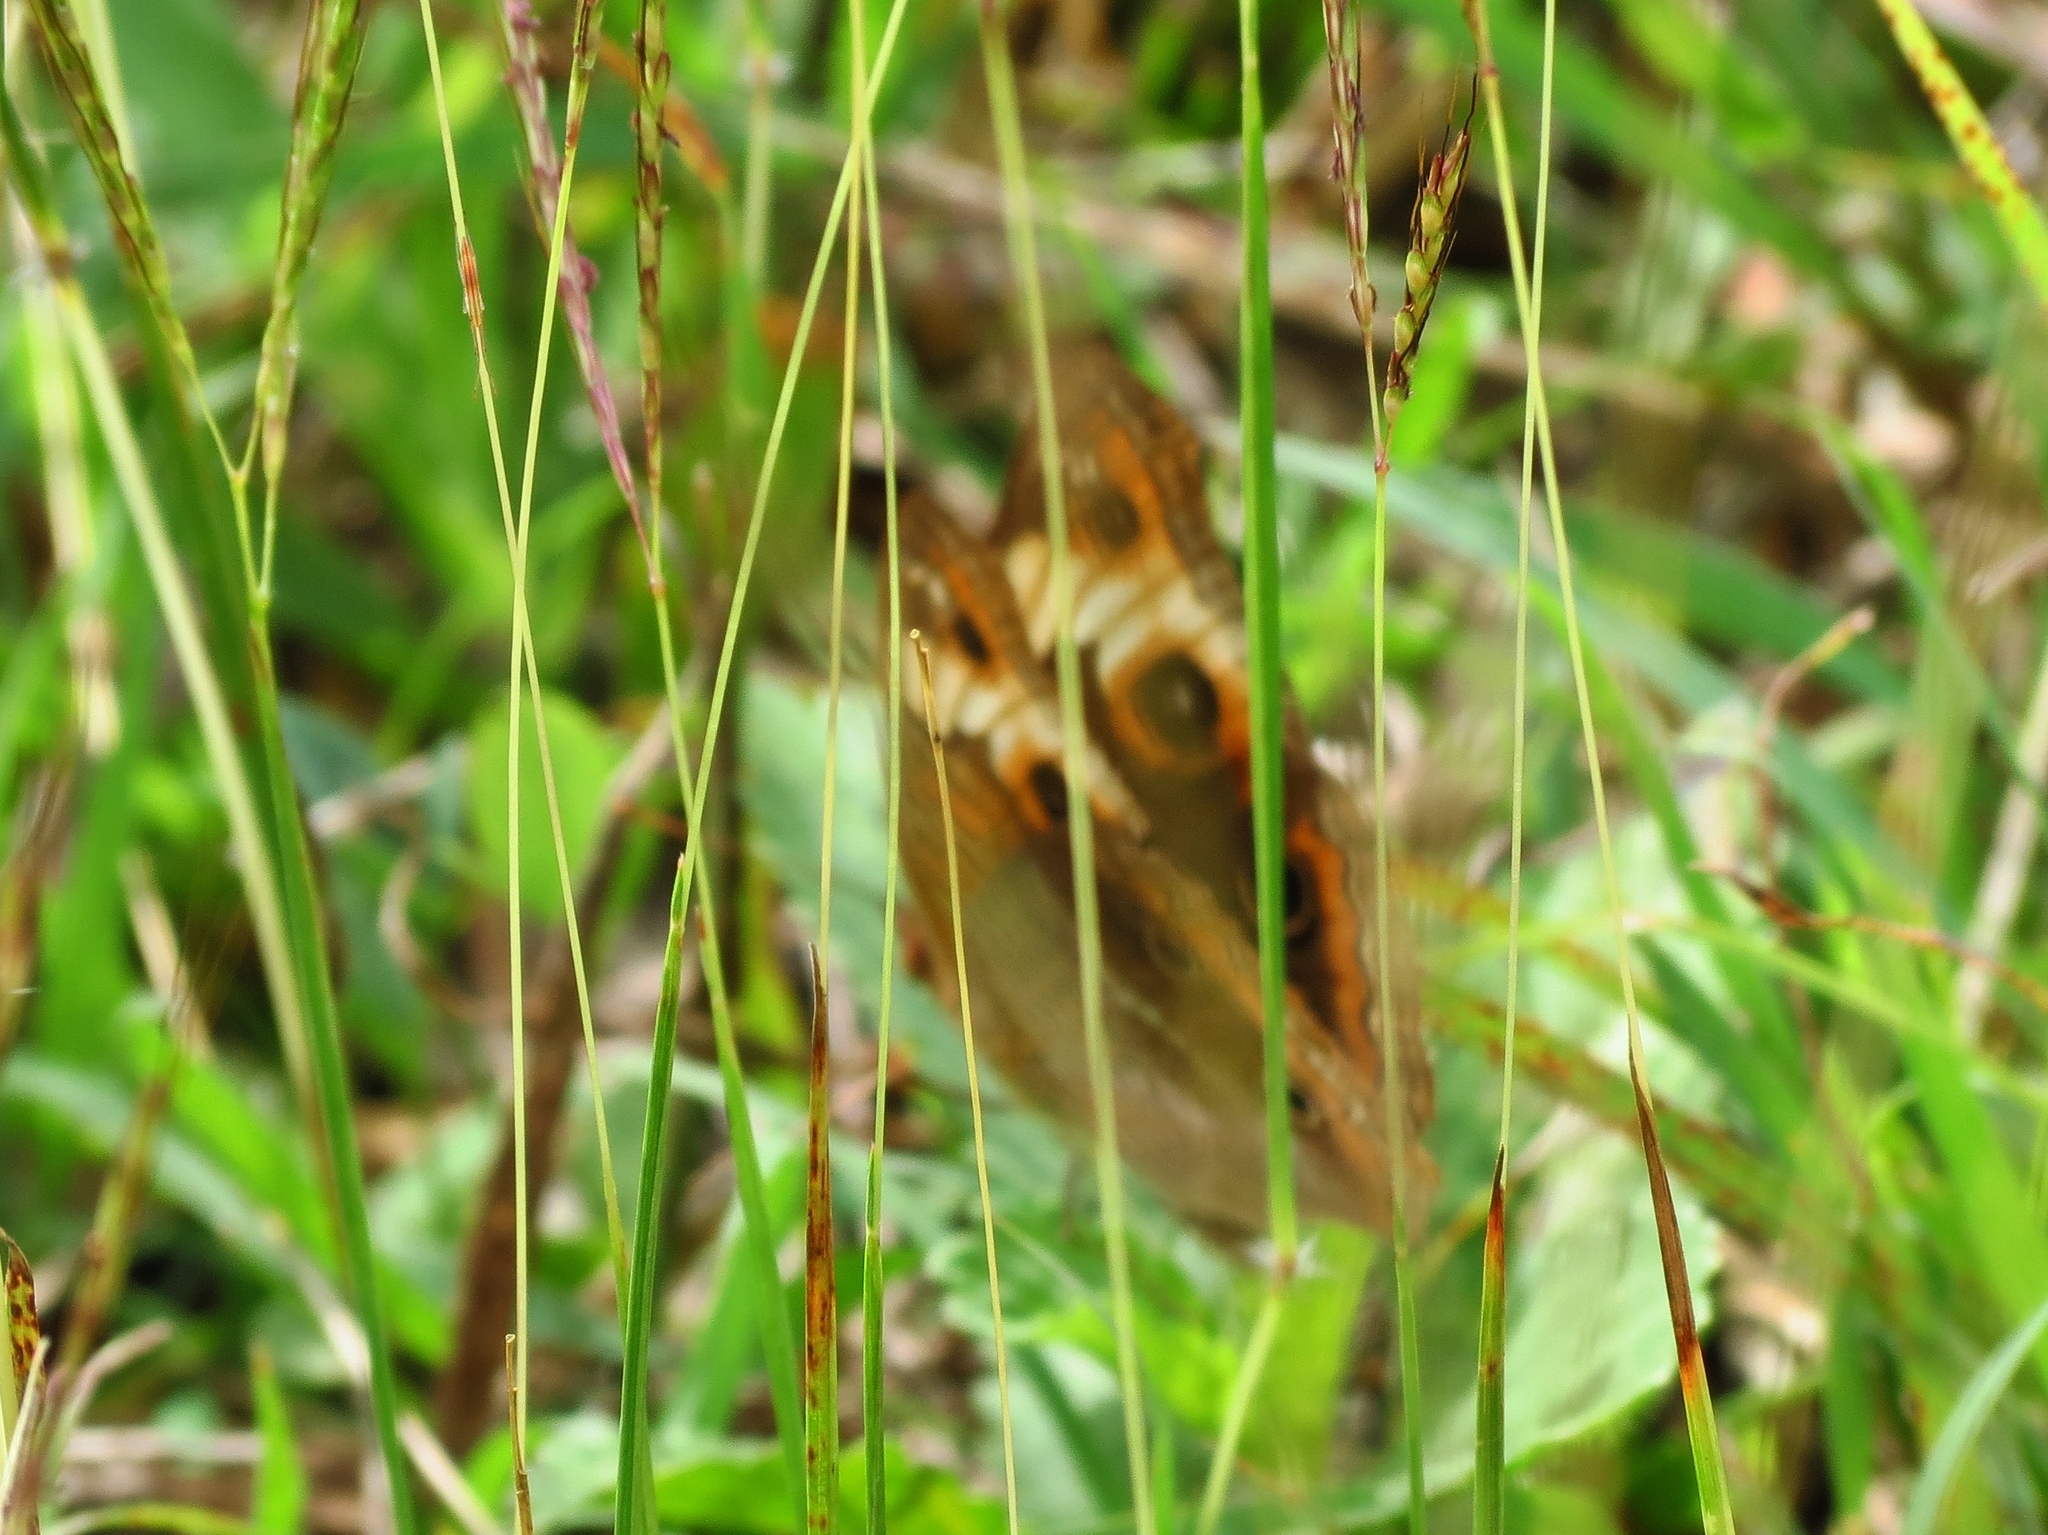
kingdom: Animalia
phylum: Arthropoda
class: Insecta
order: Lepidoptera
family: Nymphalidae
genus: Junonia
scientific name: Junonia neildi
